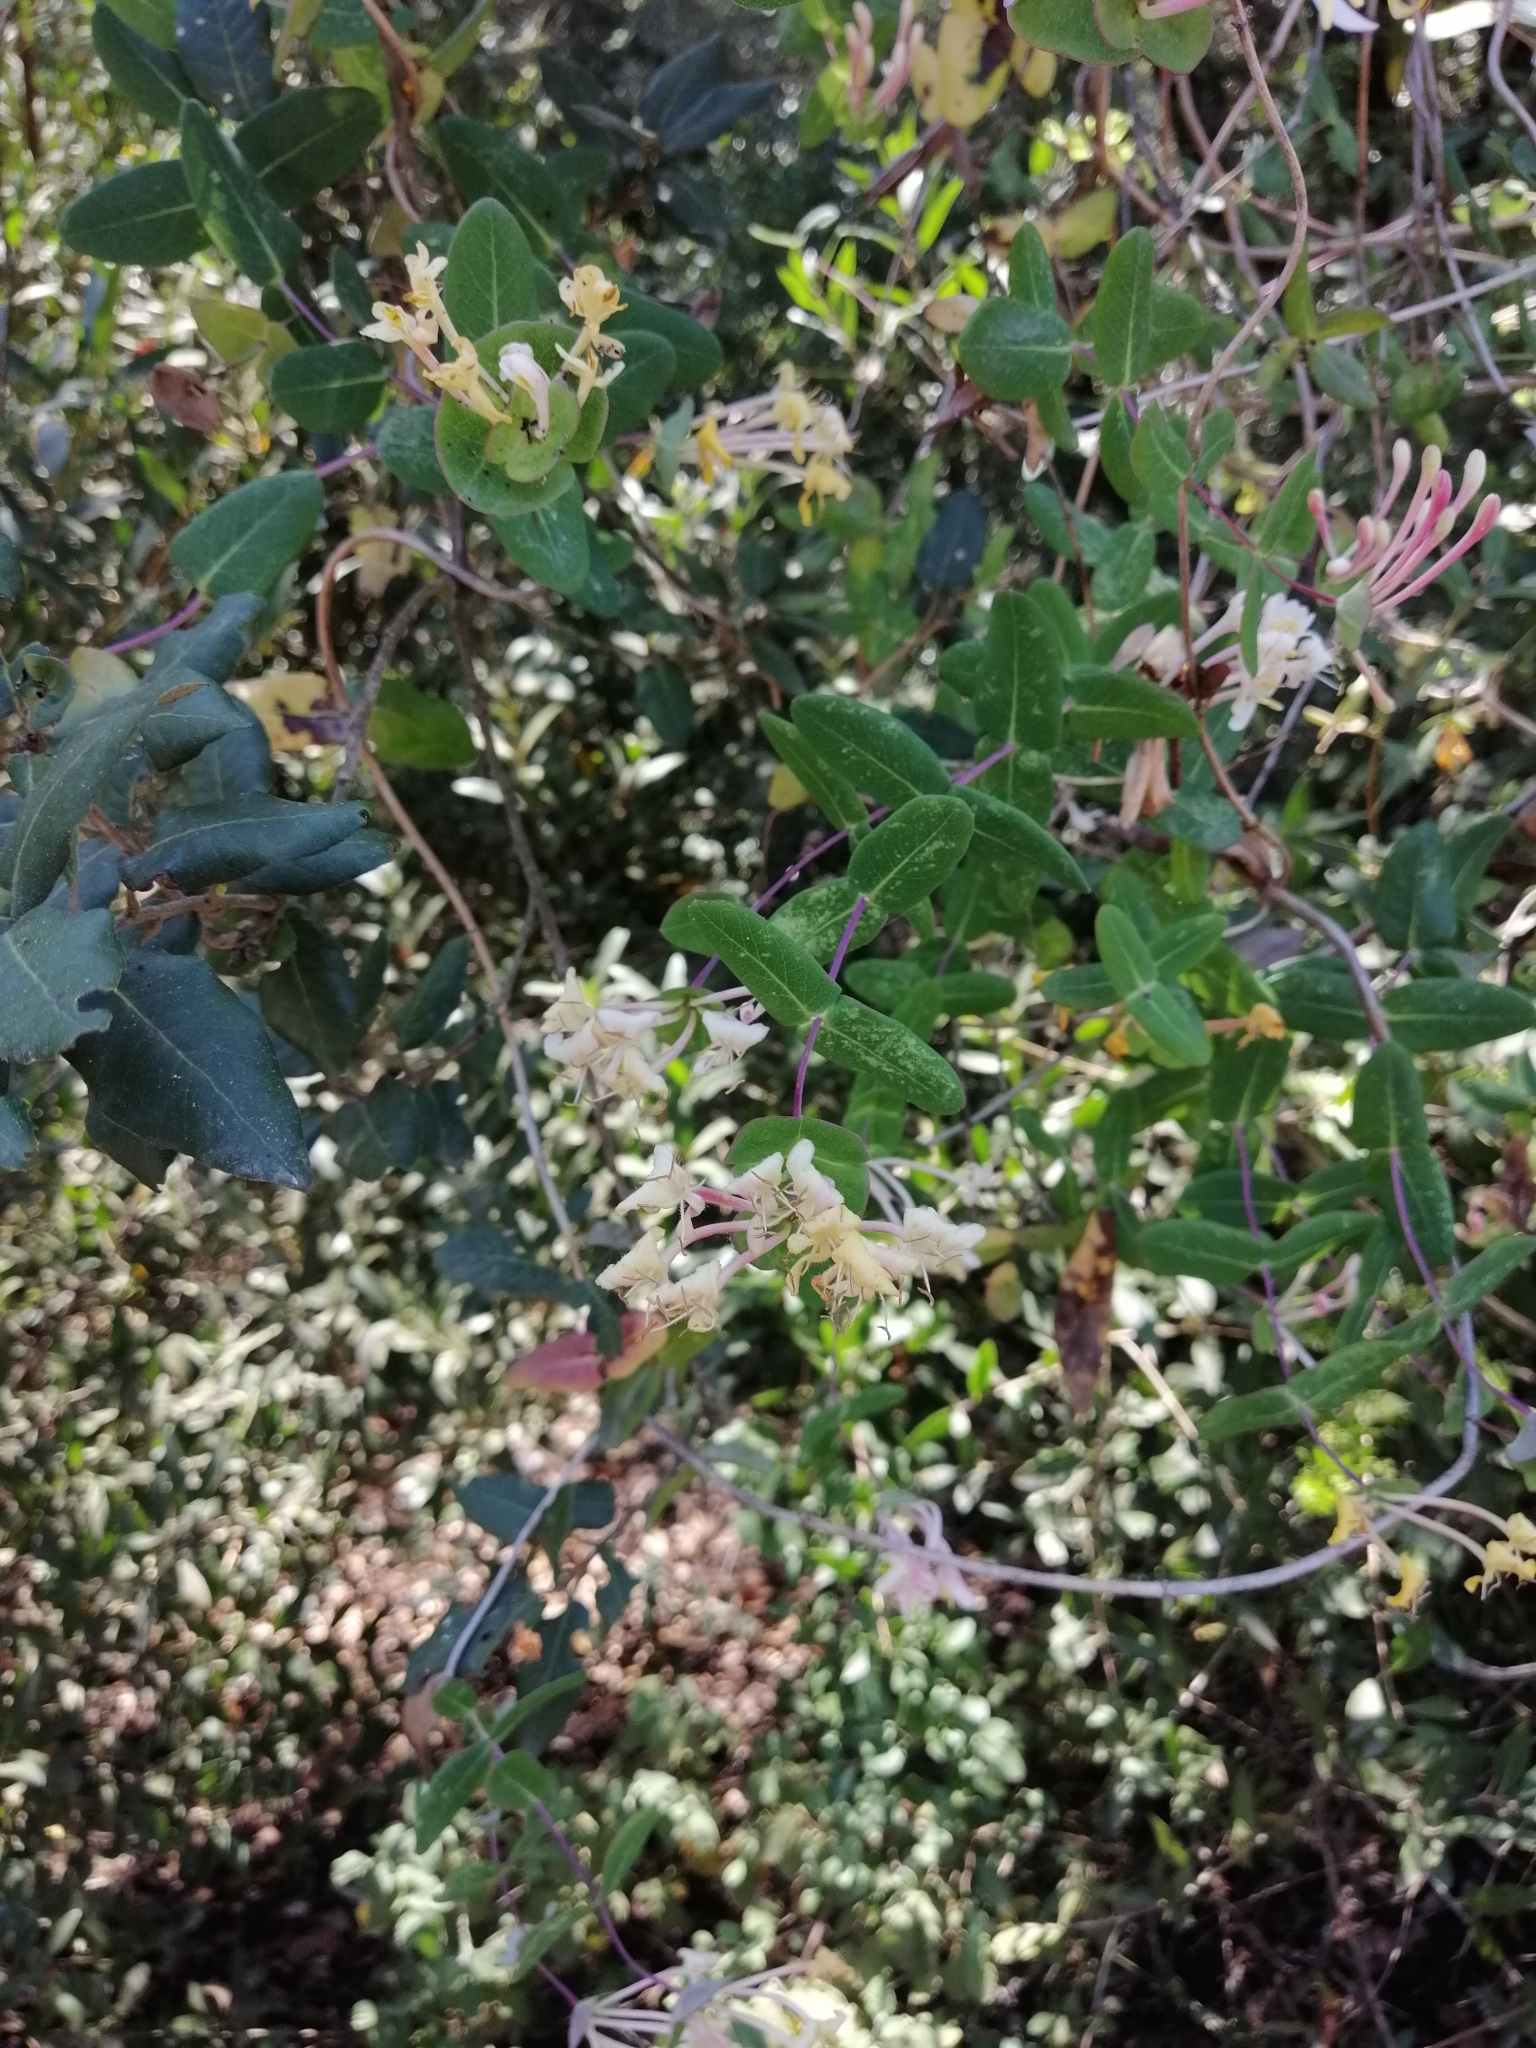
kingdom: Plantae
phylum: Tracheophyta
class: Magnoliopsida
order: Dipsacales
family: Caprifoliaceae
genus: Lonicera
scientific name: Lonicera implexa
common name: Minorca honeysuckle
